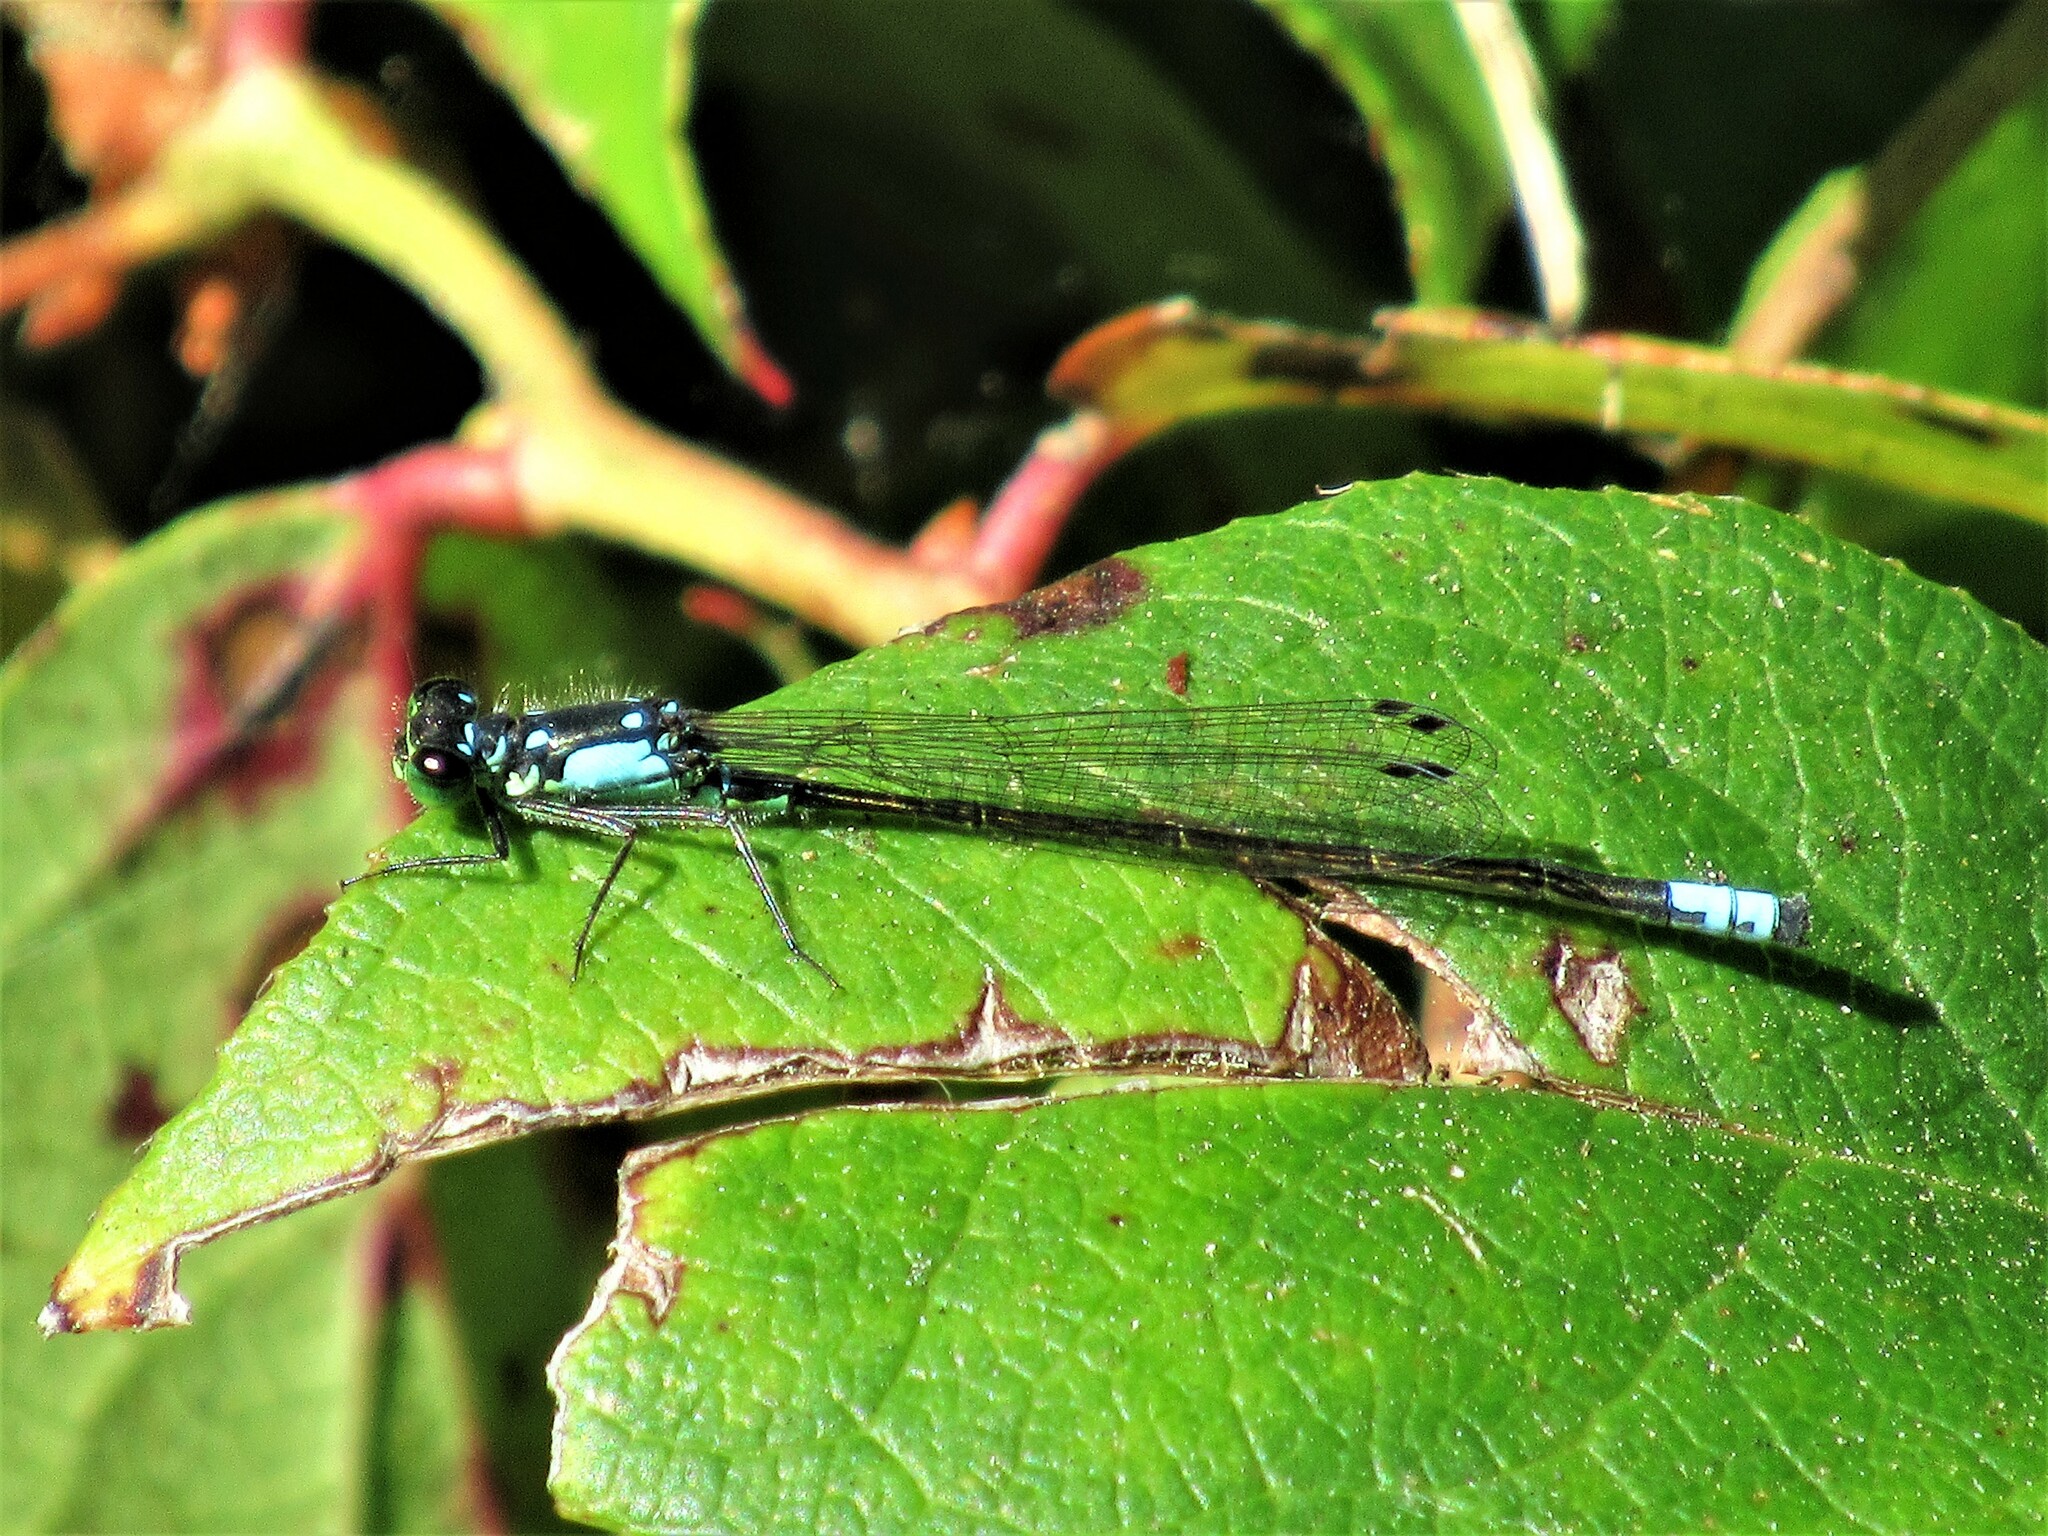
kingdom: Animalia
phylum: Arthropoda
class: Insecta
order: Odonata
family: Coenagrionidae
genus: Ischnura
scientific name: Ischnura cervula
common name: Pacific forktail
